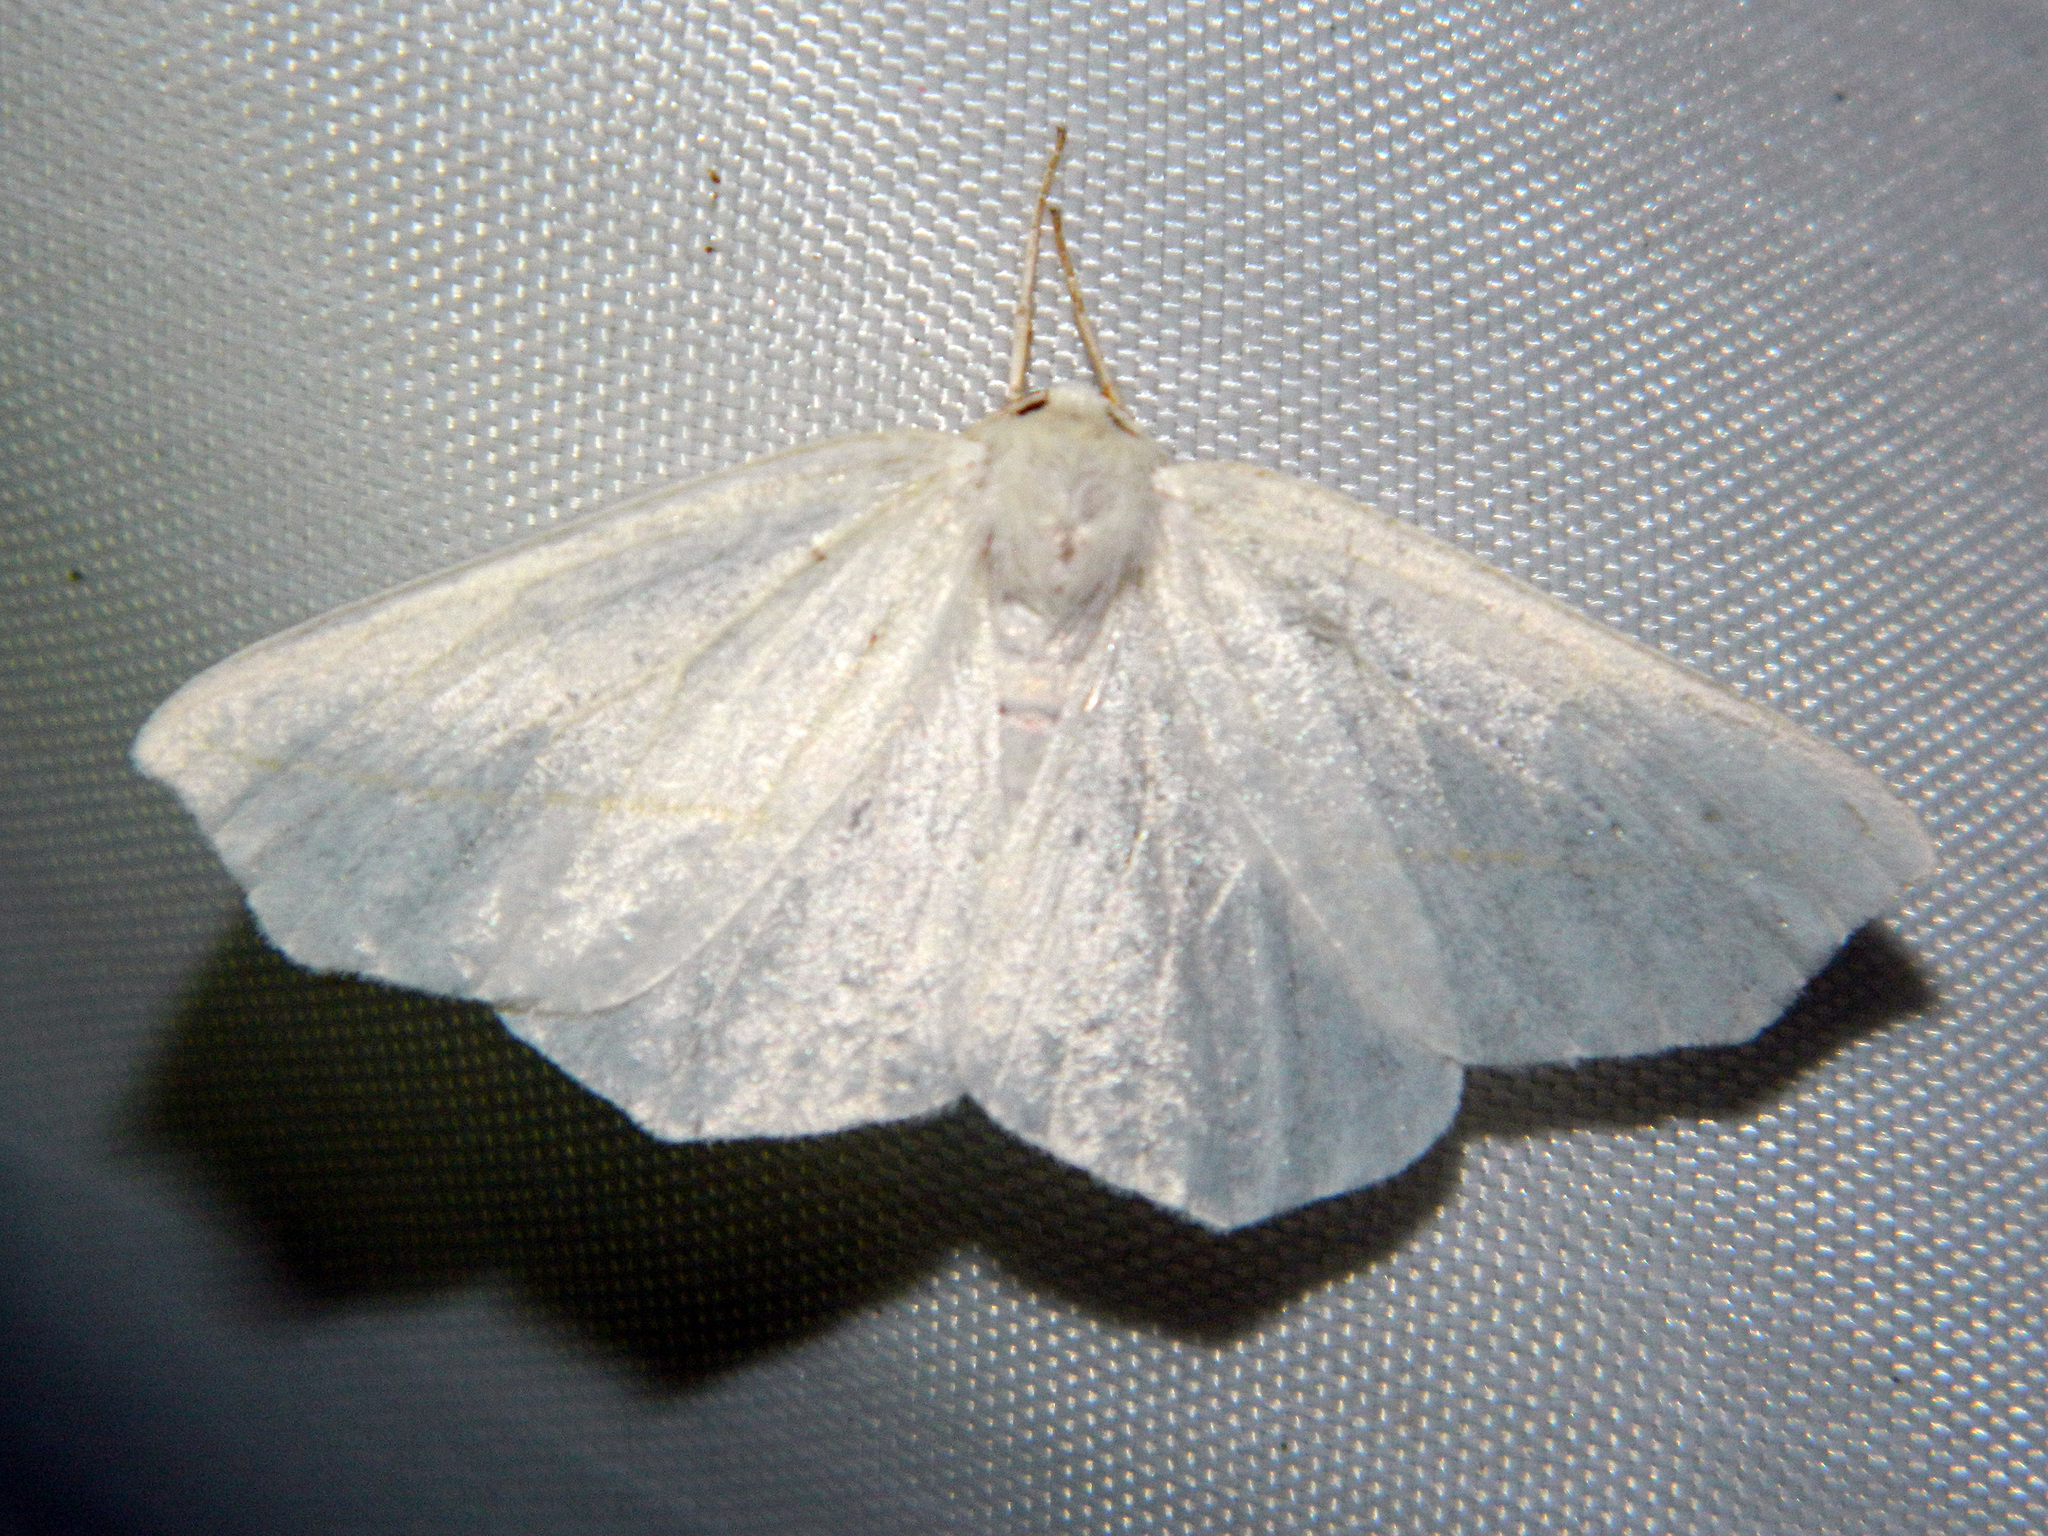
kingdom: Animalia
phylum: Arthropoda
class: Insecta
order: Lepidoptera
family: Geometridae
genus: Tetracis
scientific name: Tetracis cachexiata
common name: White slant-line
